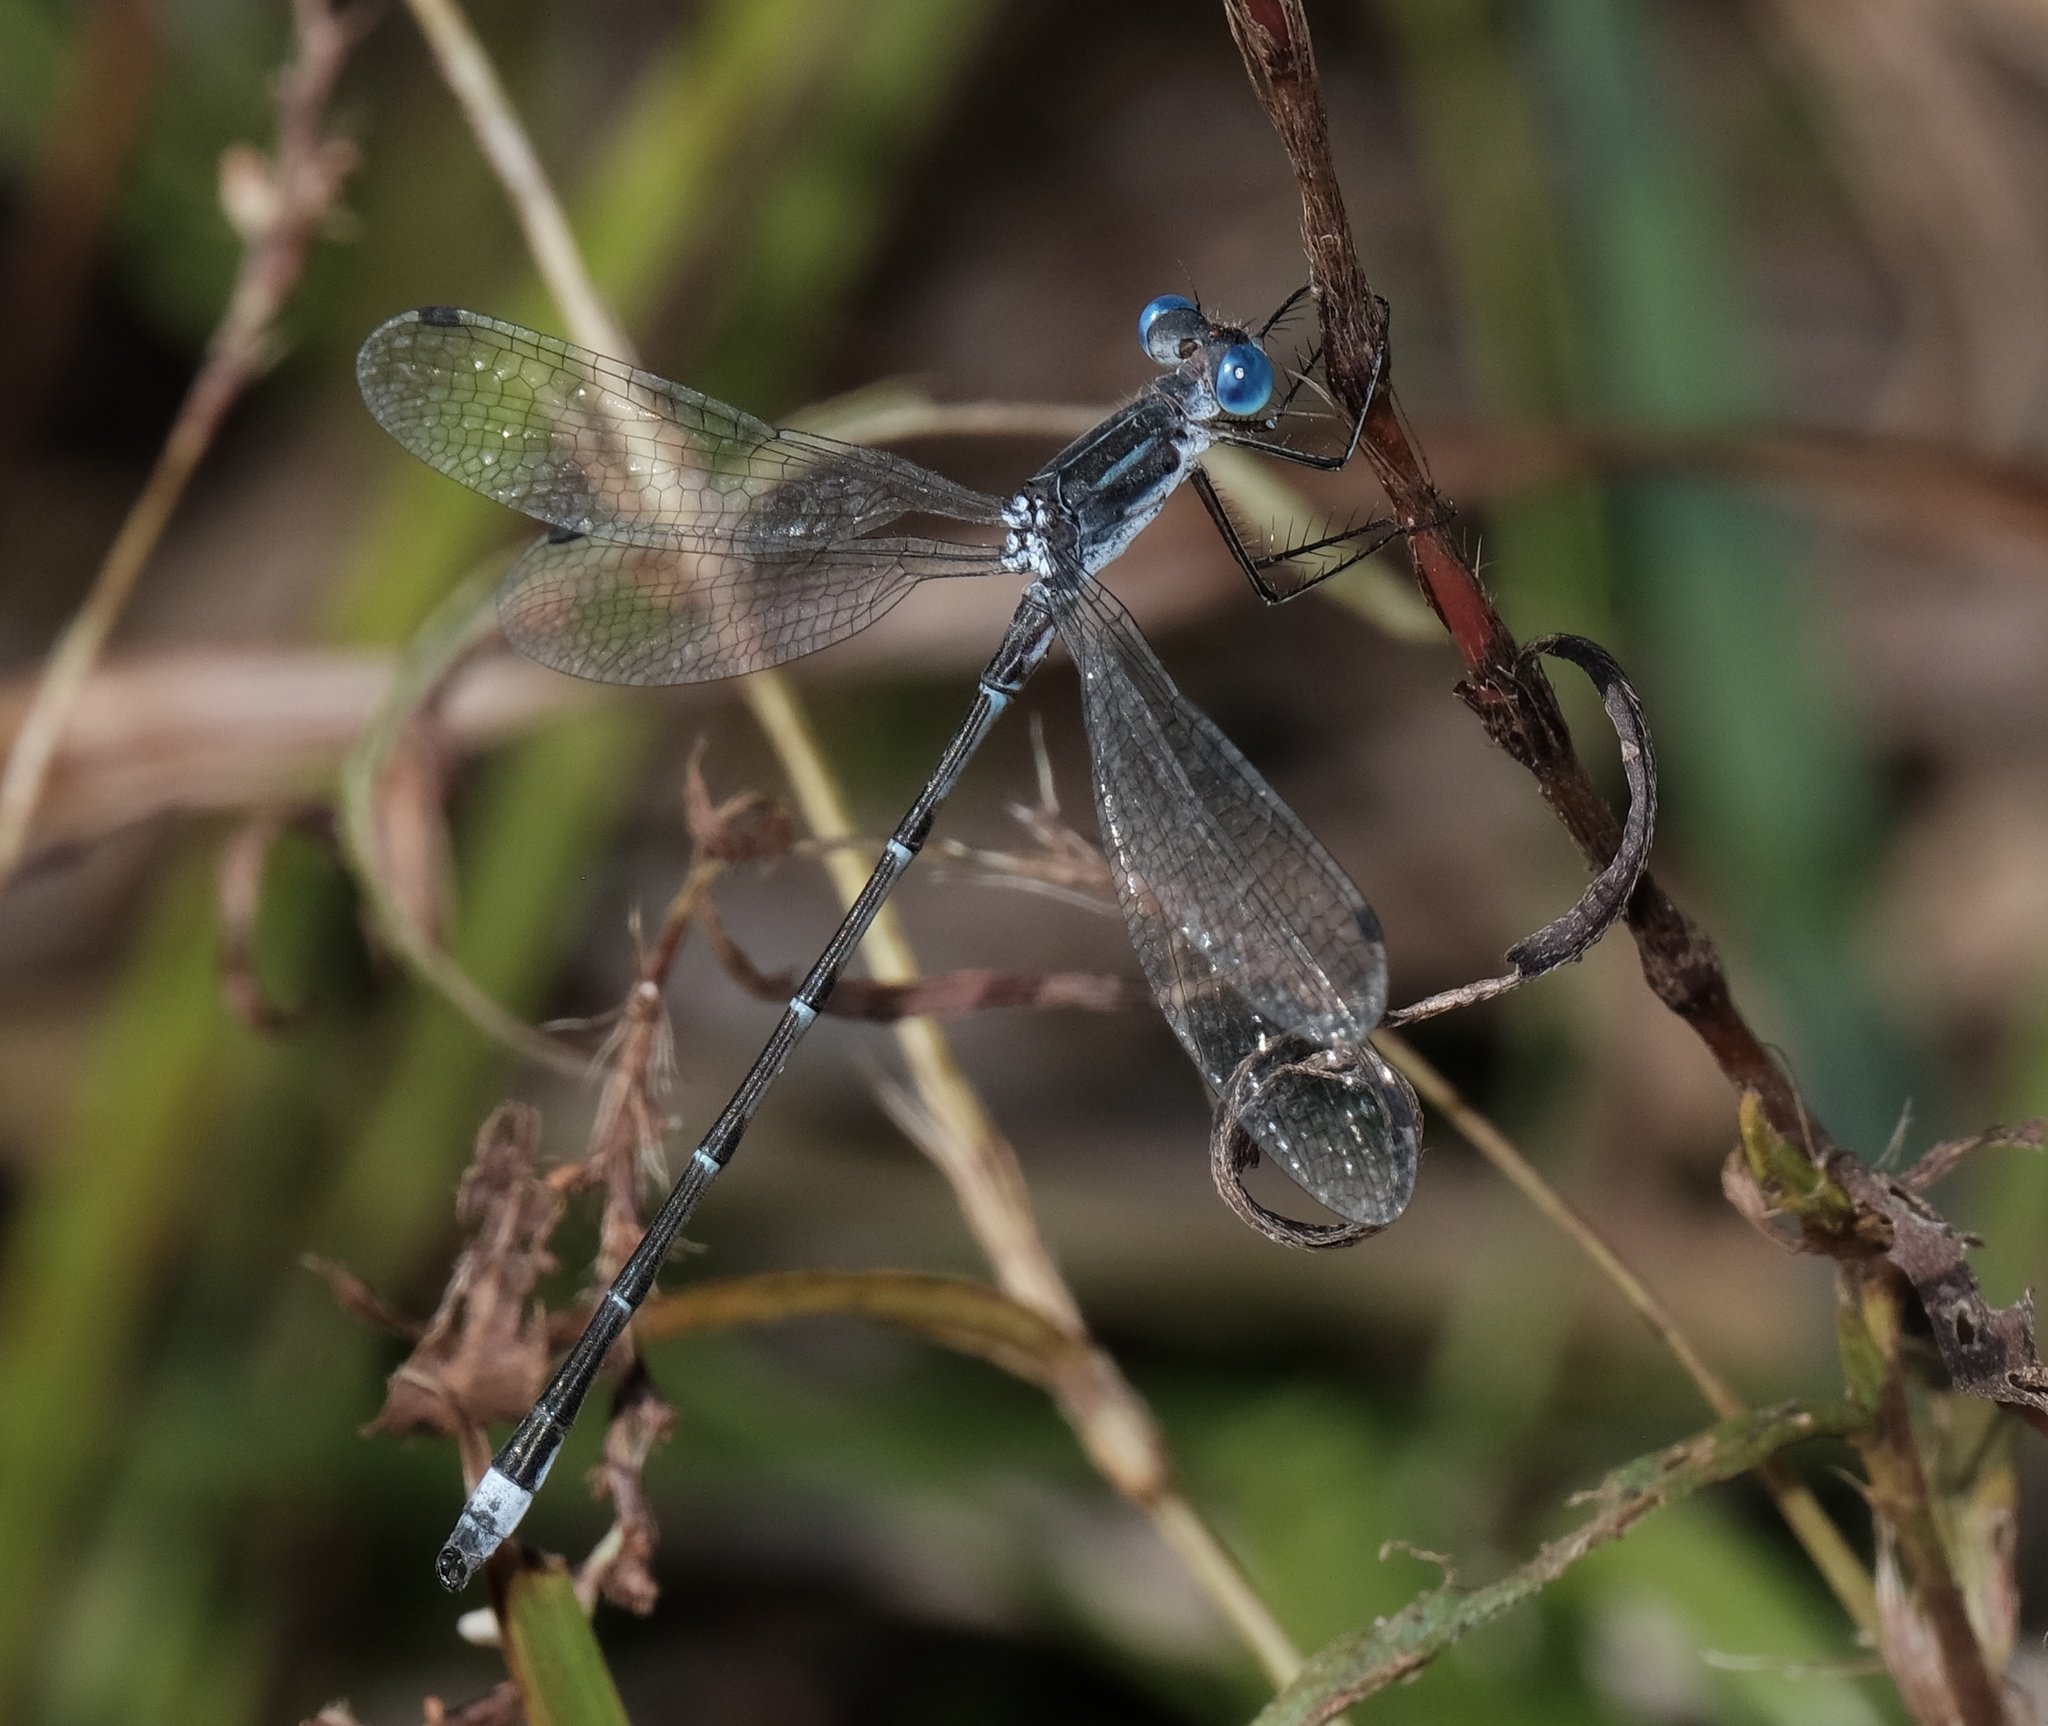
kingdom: Animalia
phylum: Arthropoda
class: Insecta
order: Odonata
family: Lestidae
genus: Lestes
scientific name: Lestes australis
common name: Southern spreadwing
